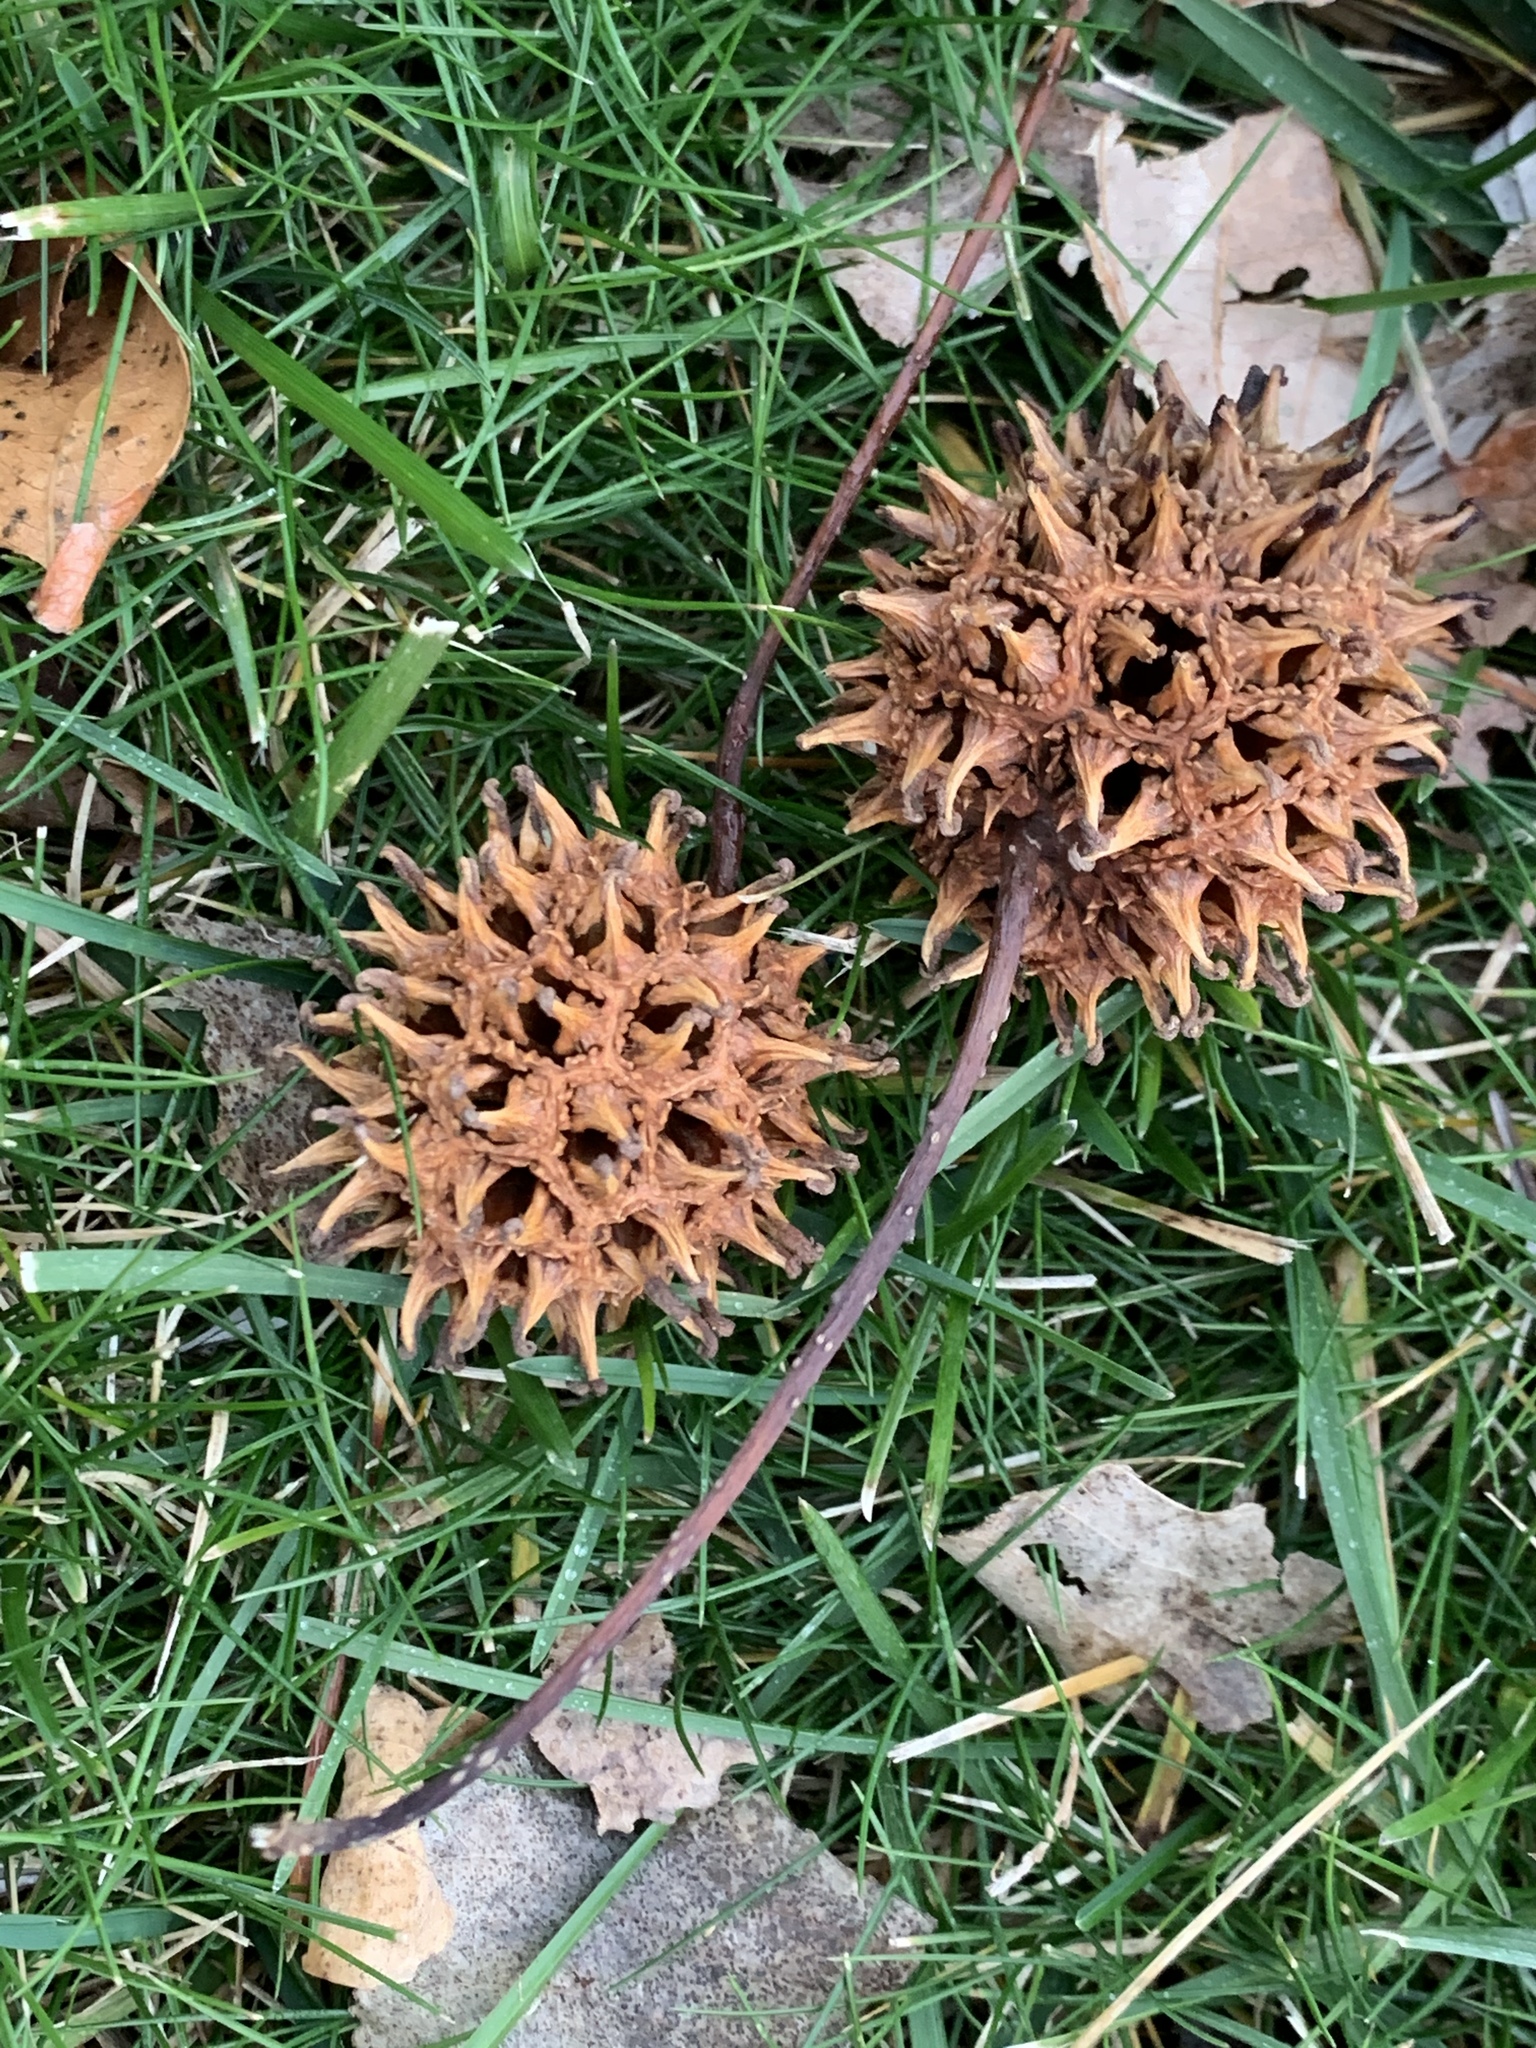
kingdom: Plantae
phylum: Tracheophyta
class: Magnoliopsida
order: Saxifragales
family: Altingiaceae
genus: Liquidambar
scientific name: Liquidambar styraciflua
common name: Sweet gum
